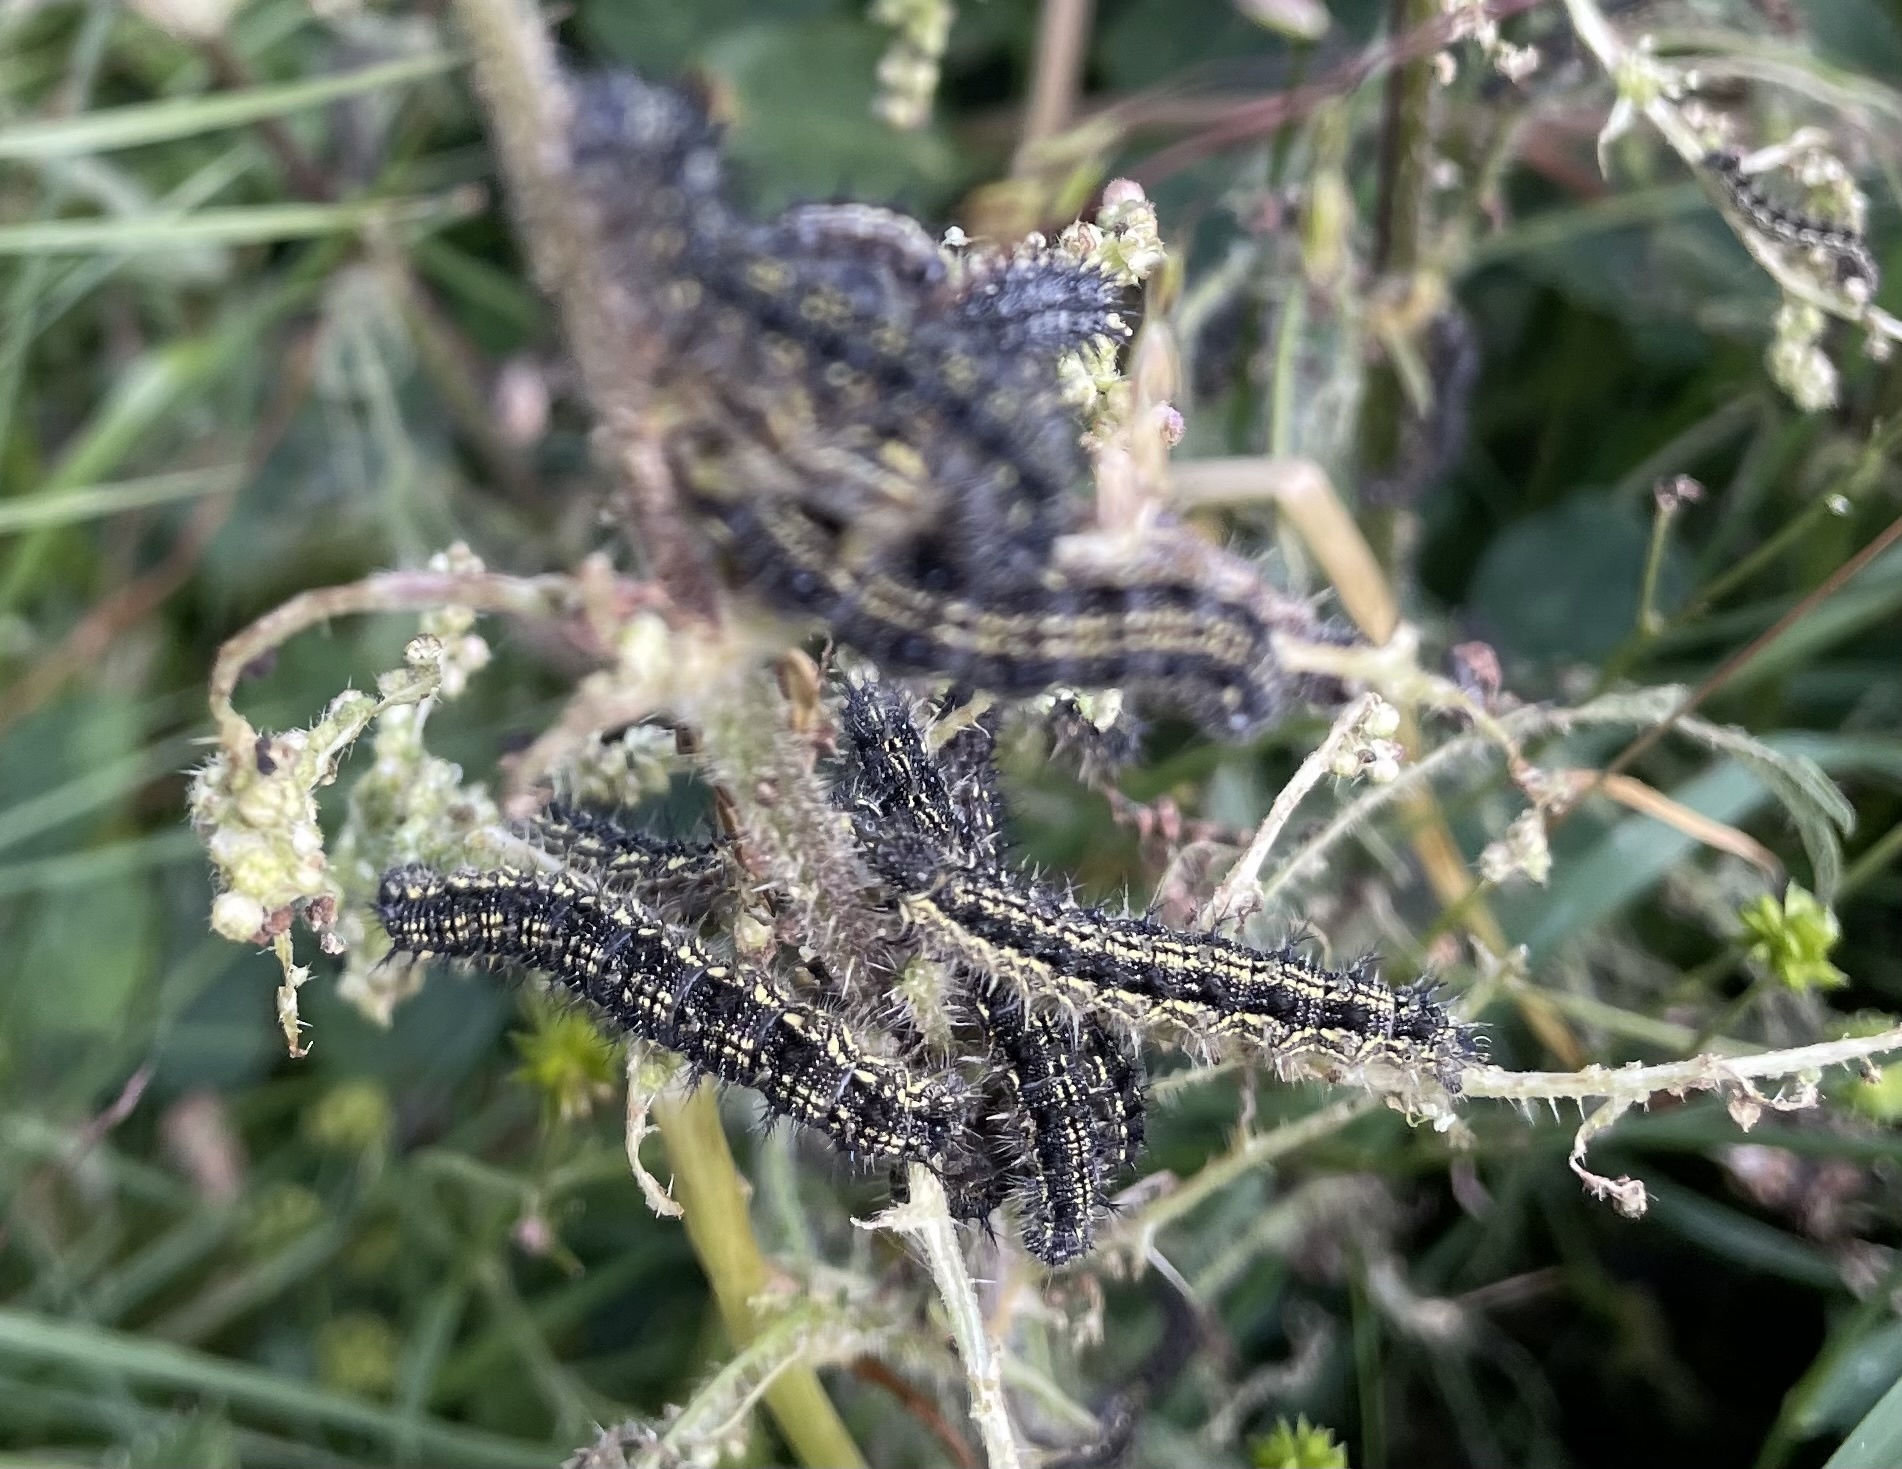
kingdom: Animalia
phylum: Arthropoda
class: Insecta
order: Lepidoptera
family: Nymphalidae
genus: Aglais
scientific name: Aglais urticae
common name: Small tortoiseshell
